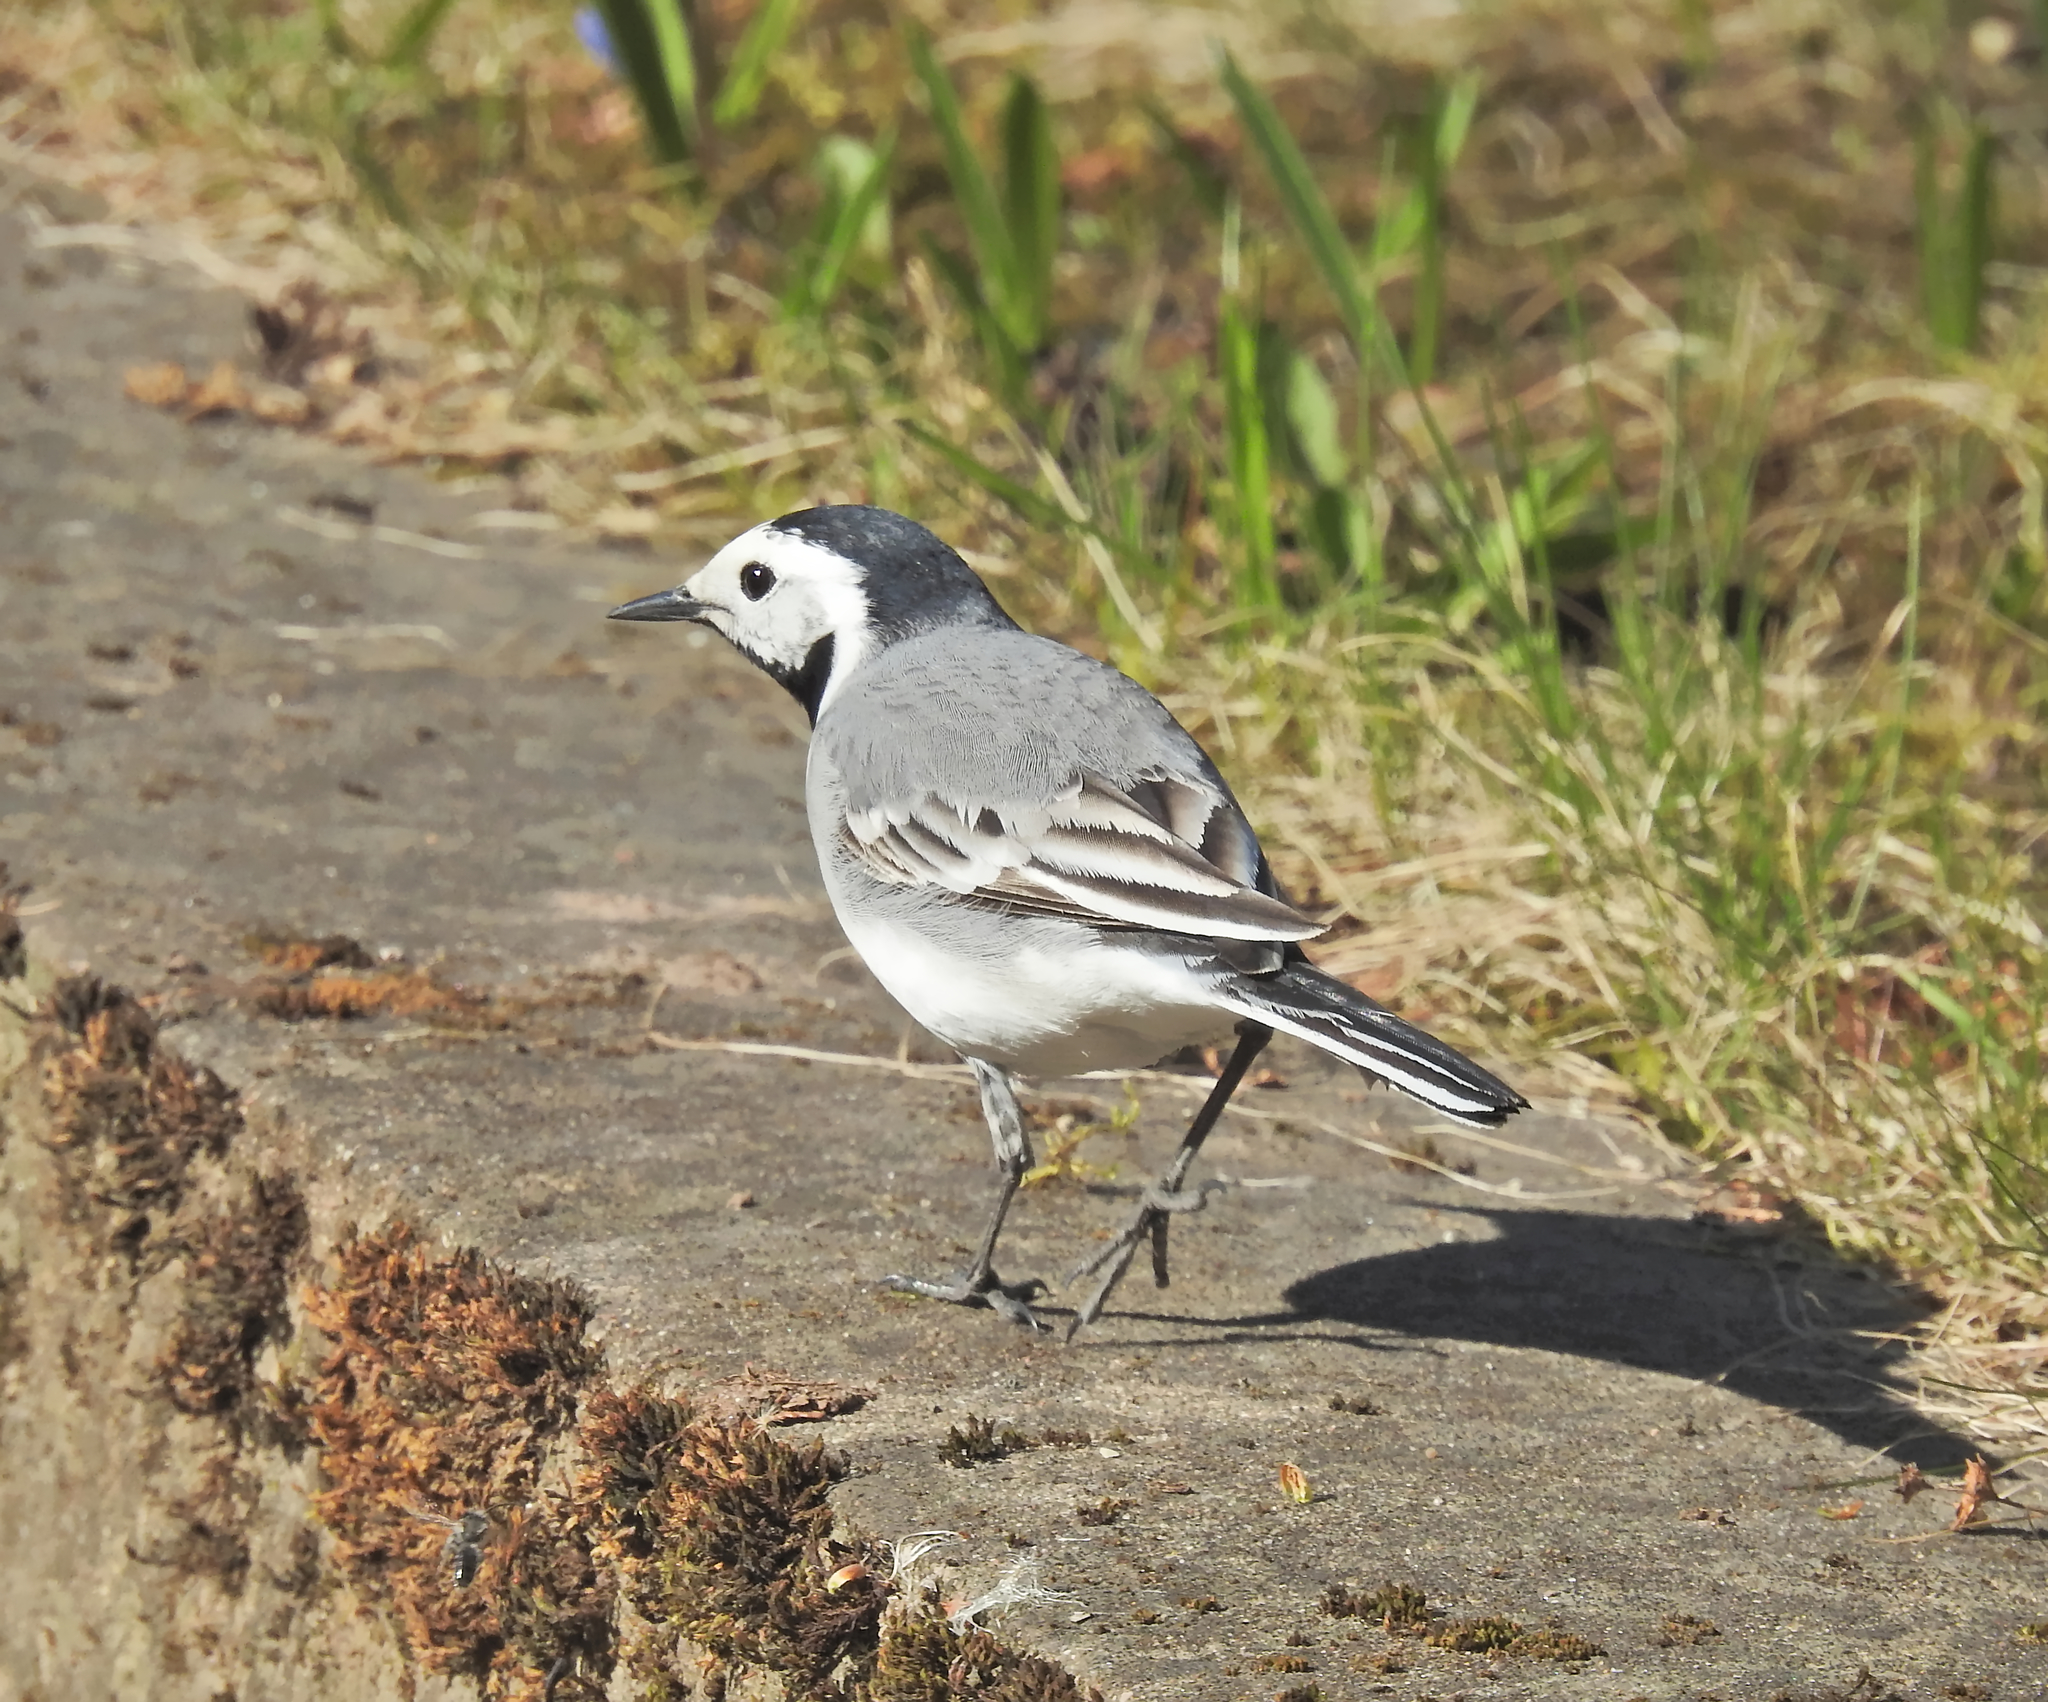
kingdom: Animalia
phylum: Chordata
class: Aves
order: Passeriformes
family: Motacillidae
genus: Motacilla
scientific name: Motacilla alba
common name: White wagtail
